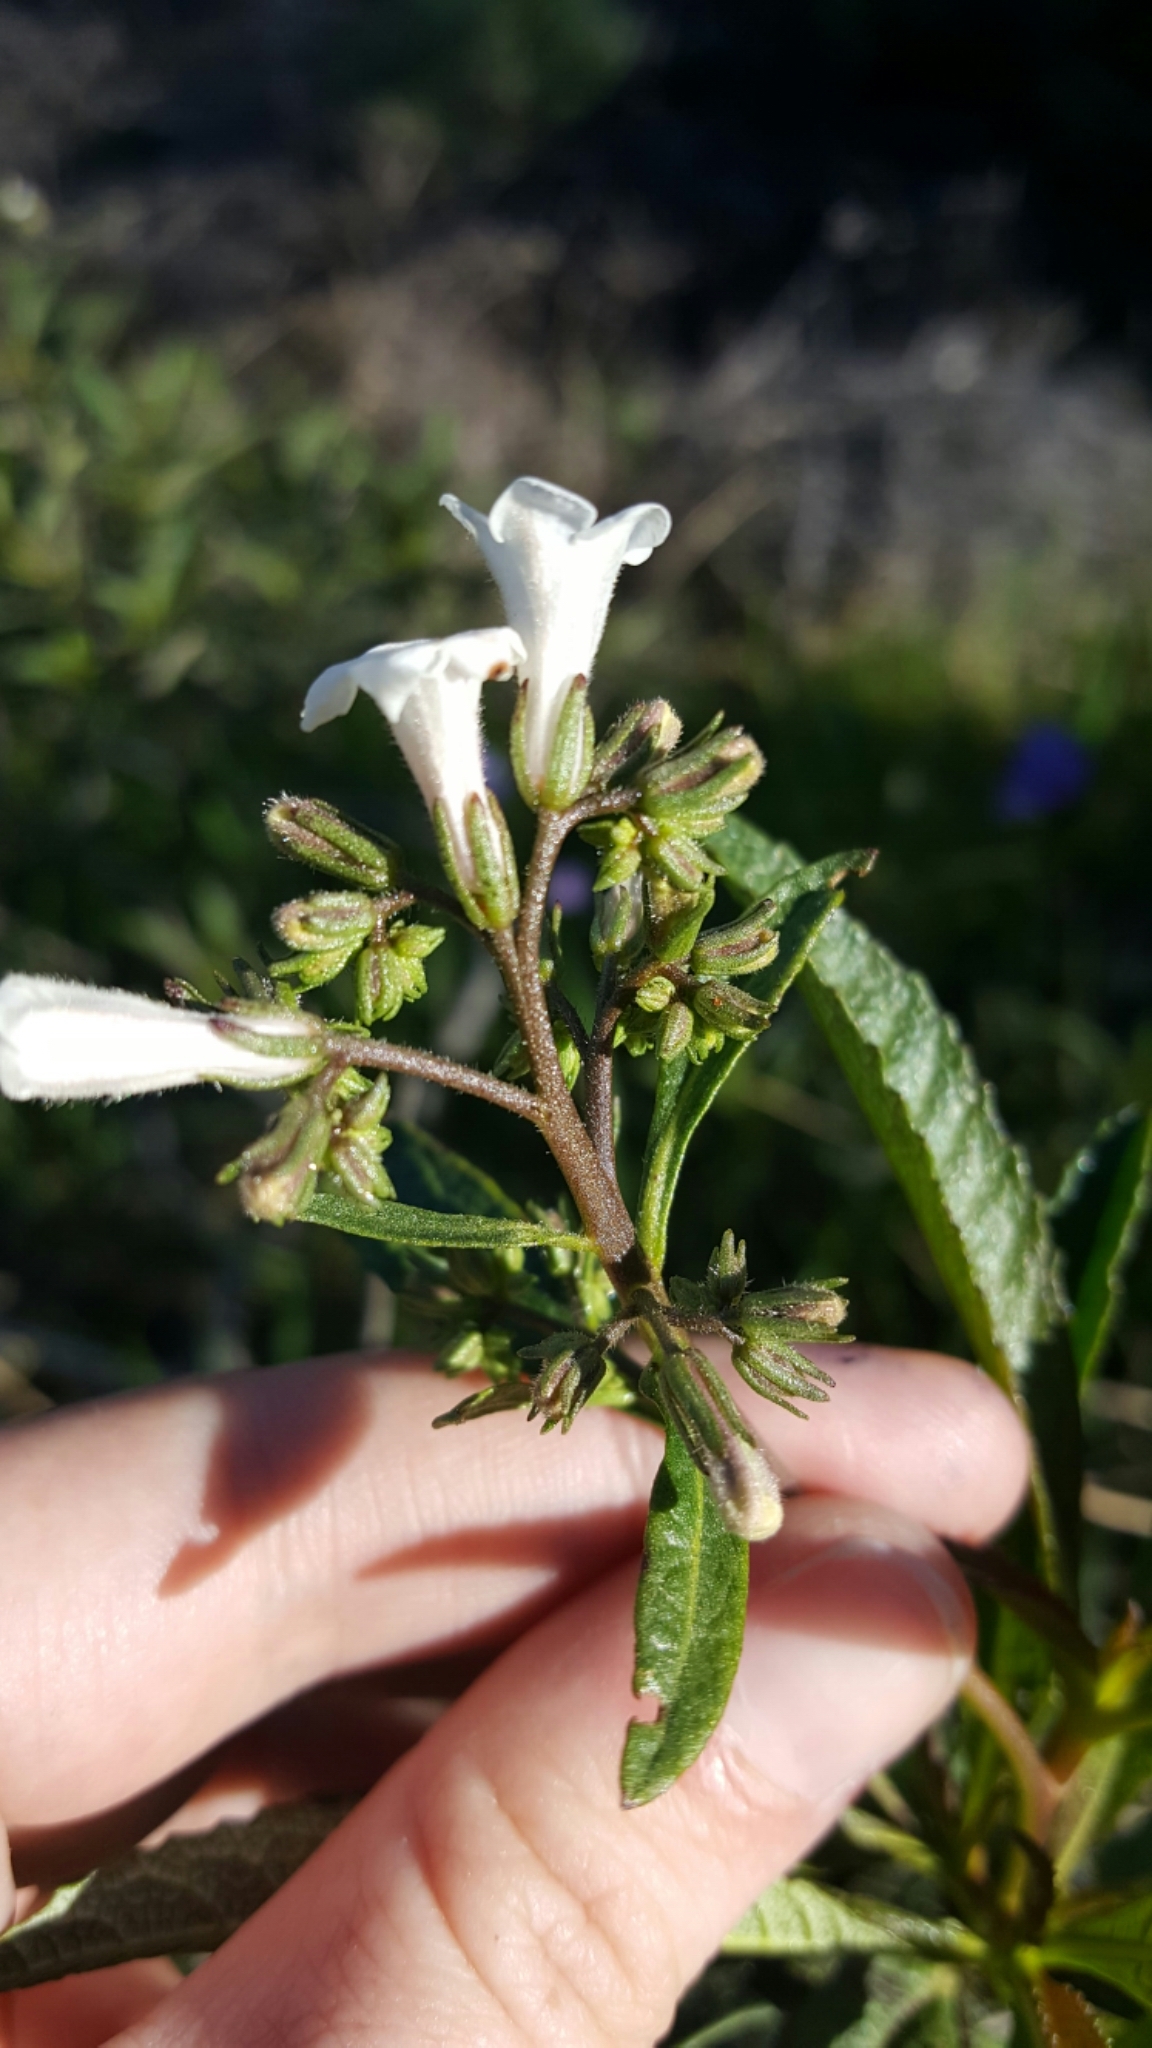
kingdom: Plantae
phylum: Tracheophyta
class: Magnoliopsida
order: Boraginales
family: Namaceae
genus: Eriodictyon
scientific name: Eriodictyon californicum
